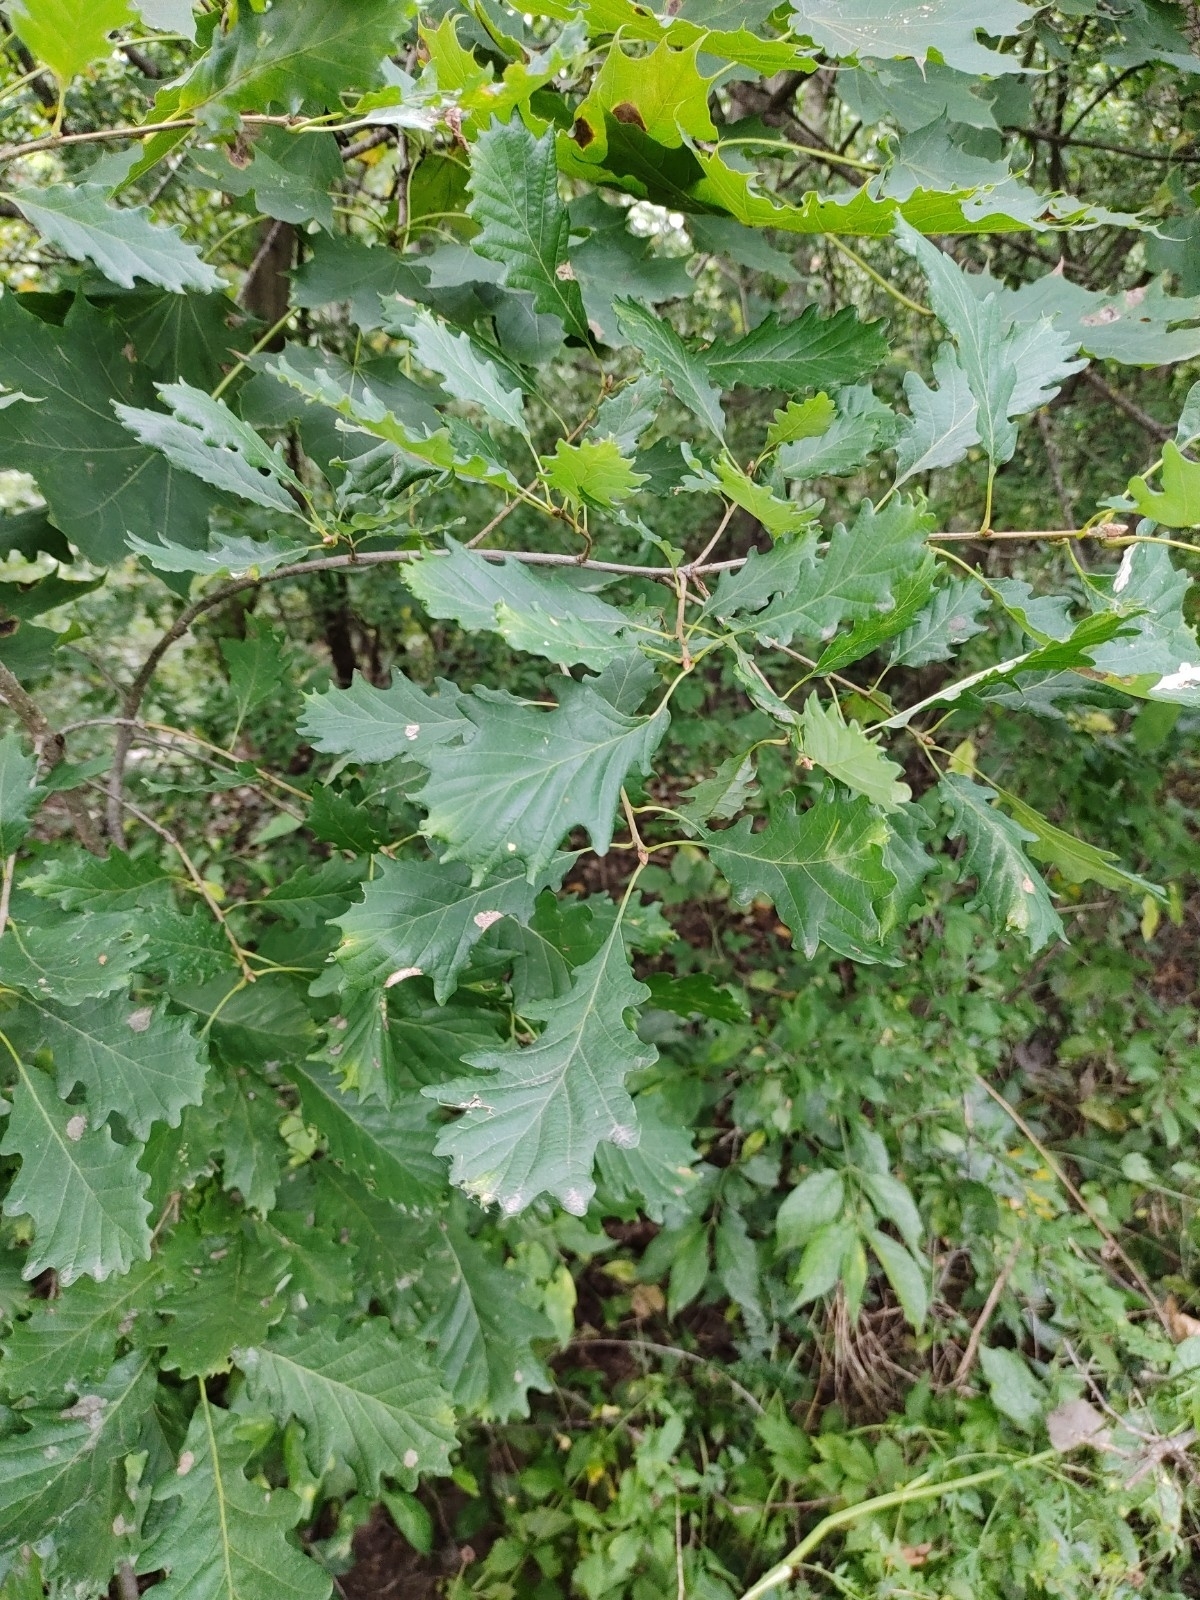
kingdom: Plantae
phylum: Tracheophyta
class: Magnoliopsida
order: Fagales
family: Fagaceae
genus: Quercus
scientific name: Quercus petraea
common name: Sessile oak
